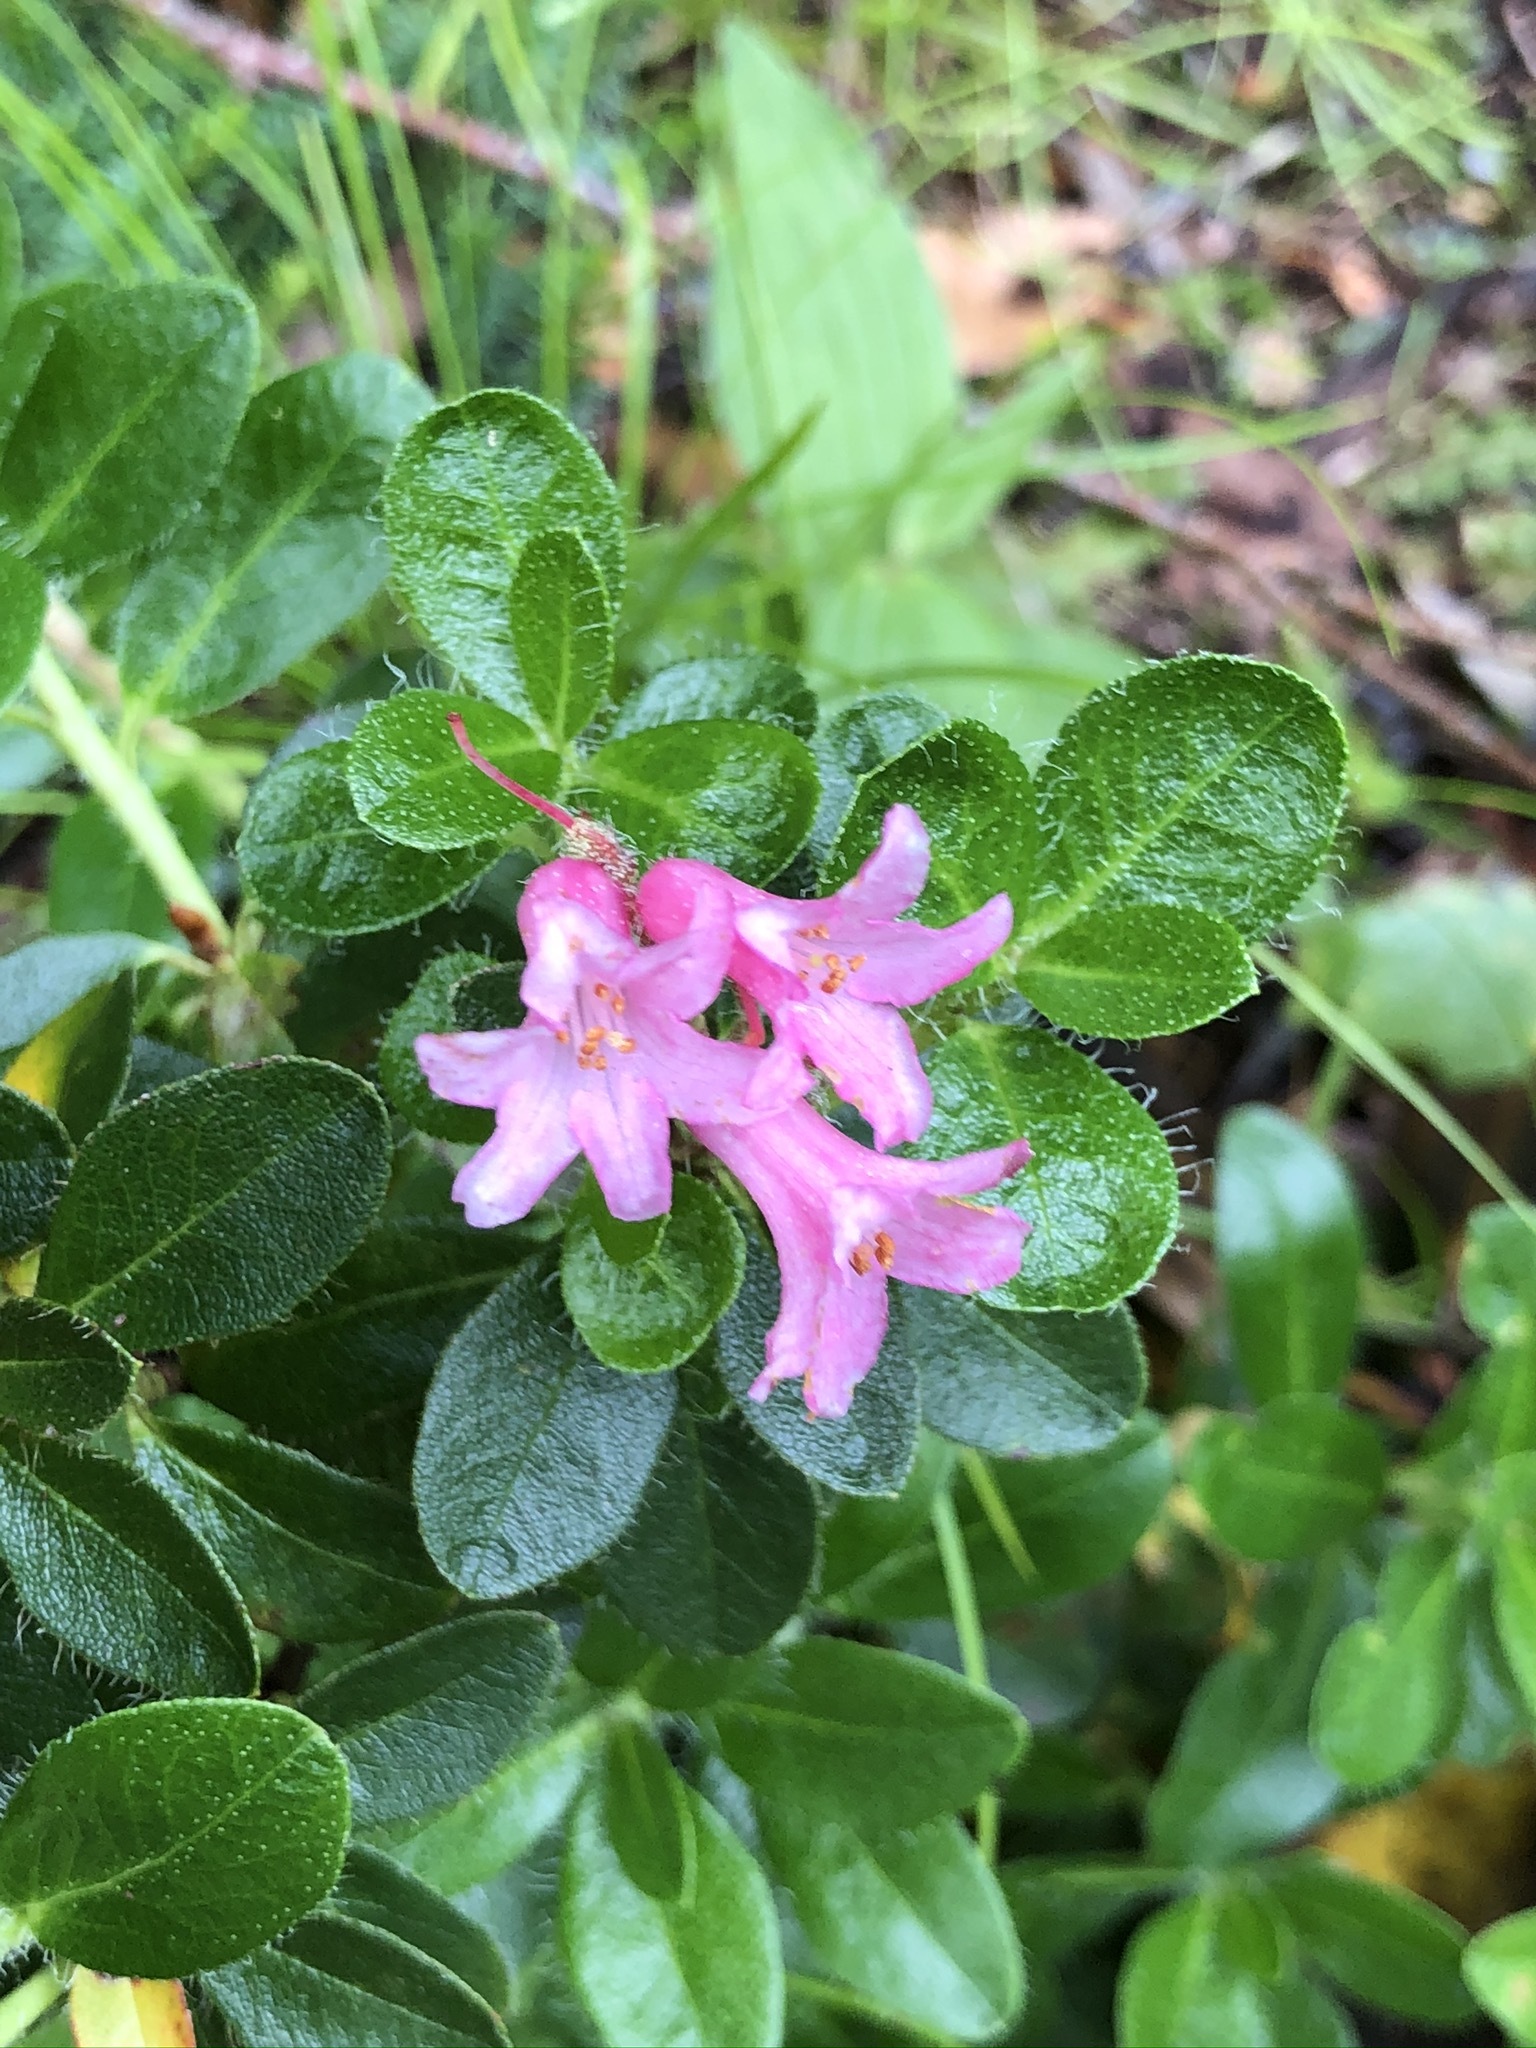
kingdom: Plantae
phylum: Tracheophyta
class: Magnoliopsida
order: Ericales
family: Ericaceae
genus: Rhododendron
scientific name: Rhododendron hirsutum
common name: Hairy alpenrose
